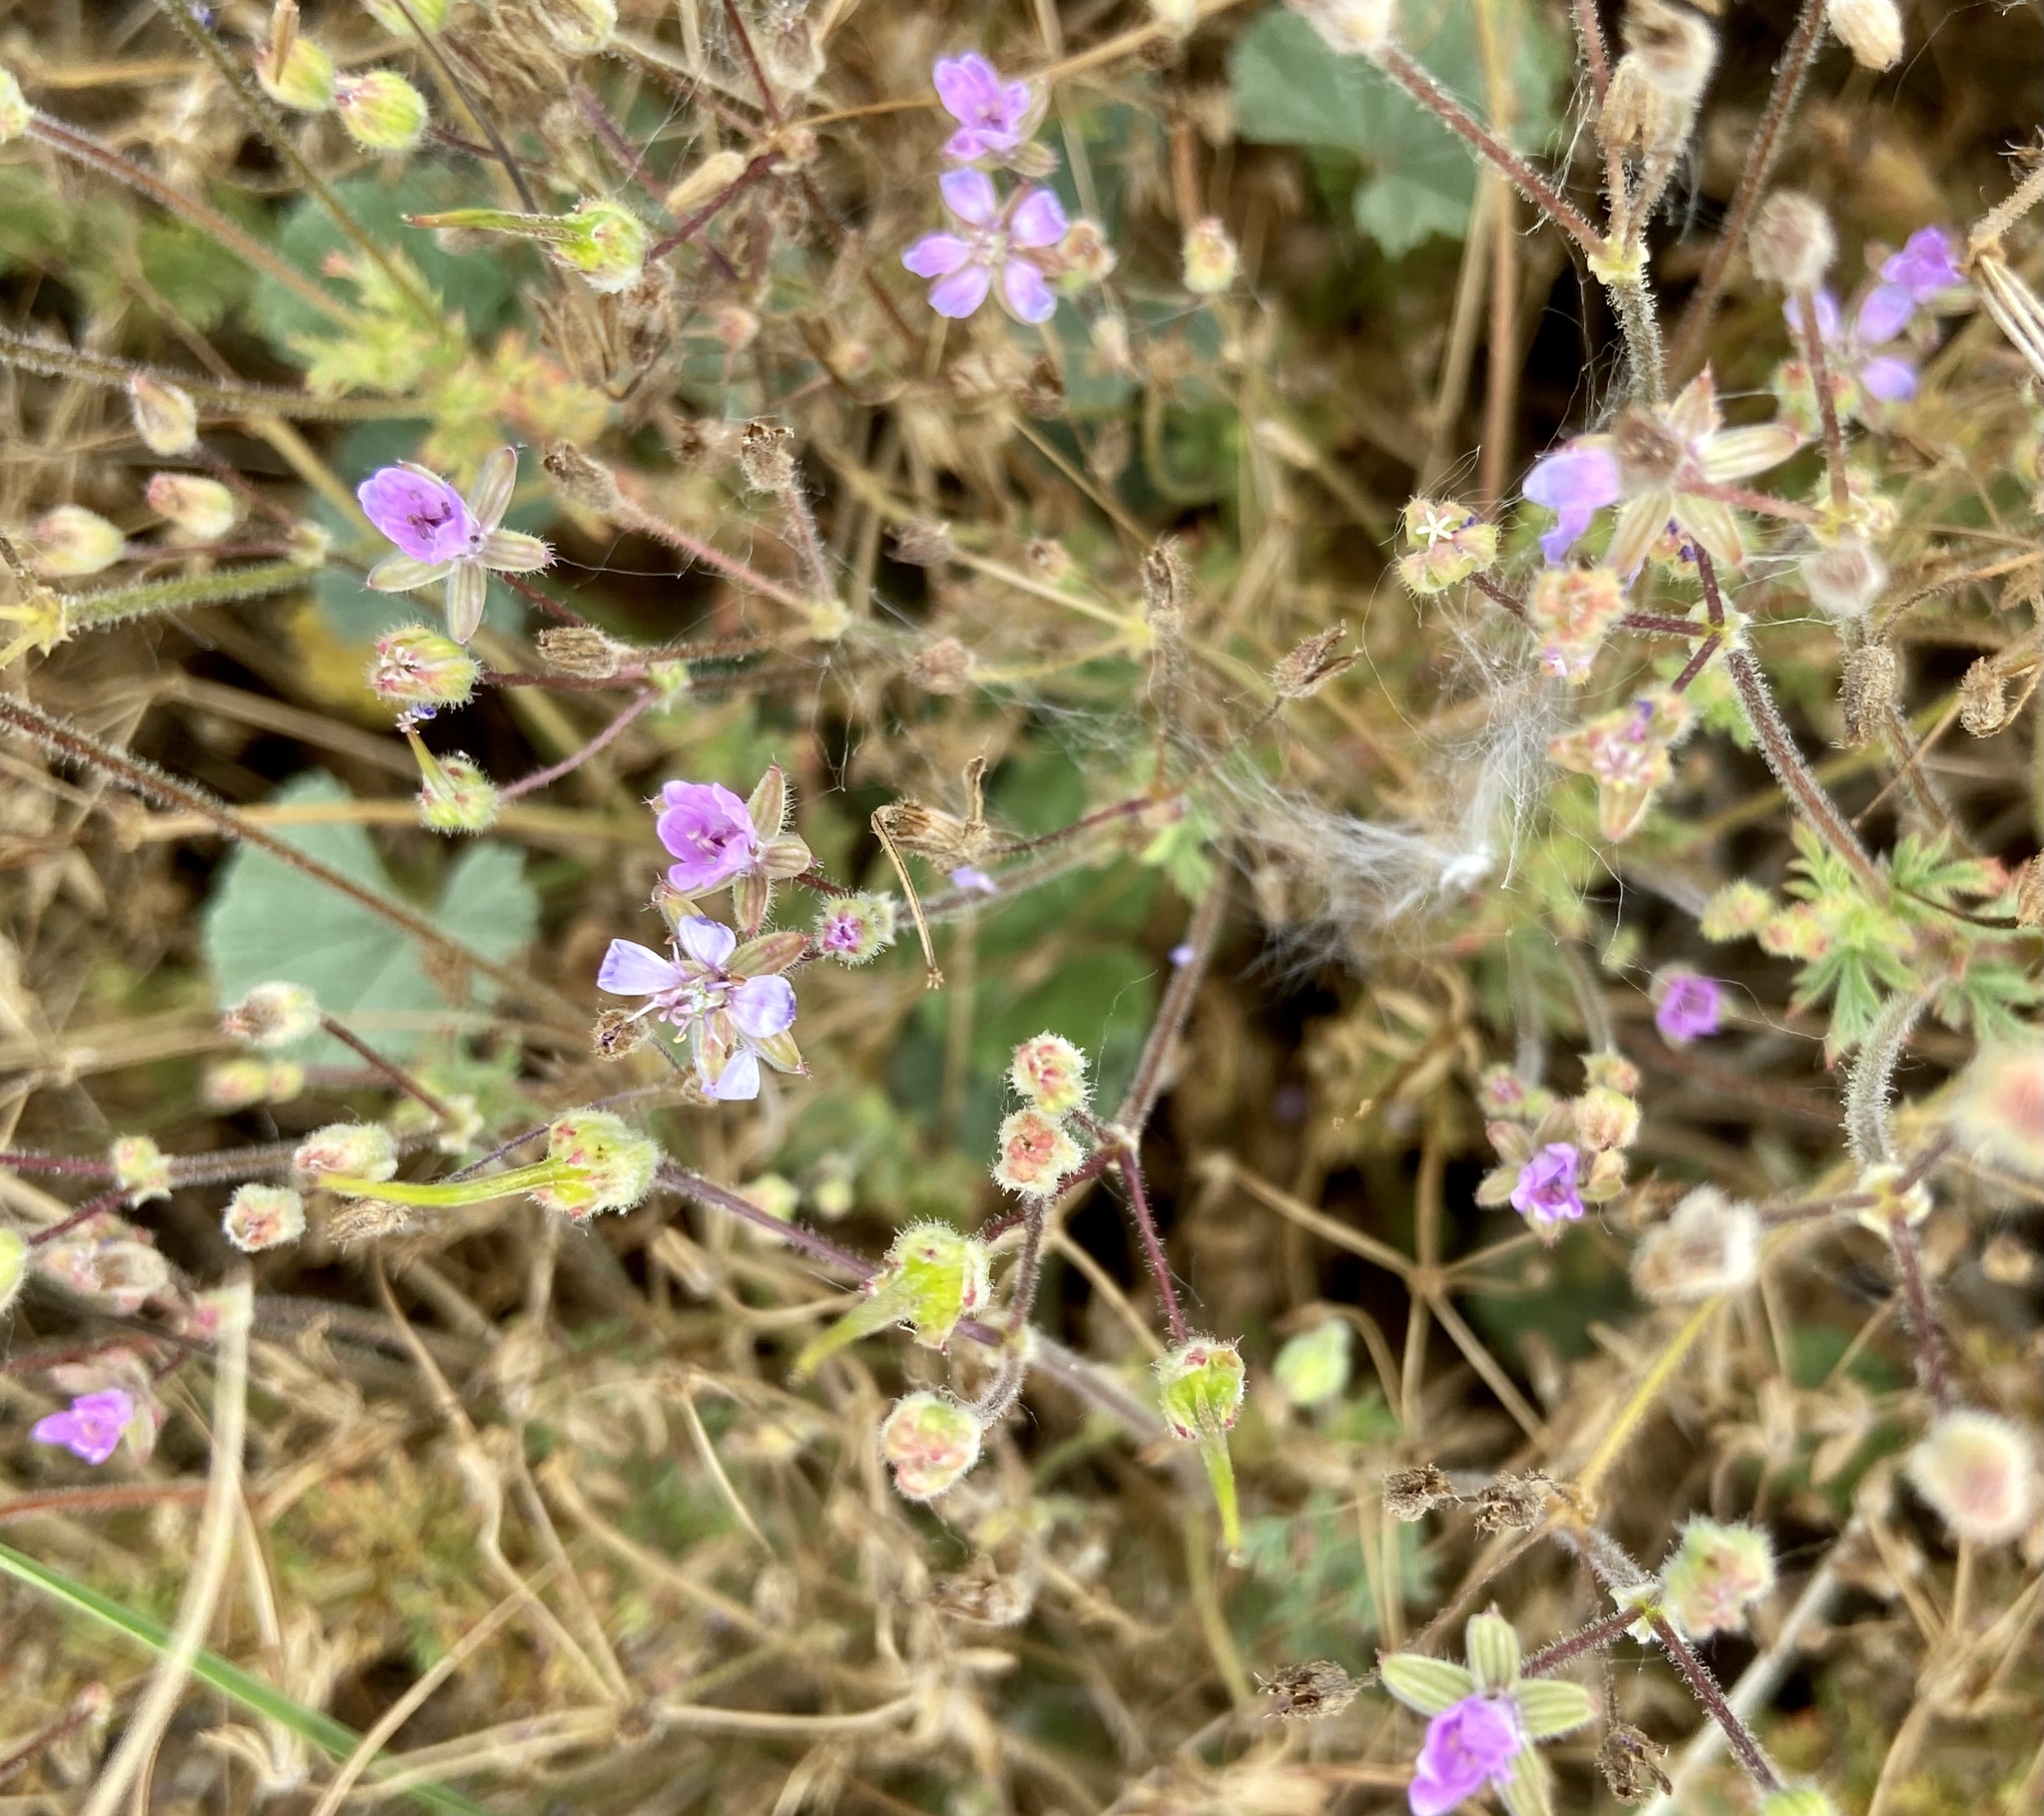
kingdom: Plantae
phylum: Tracheophyta
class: Magnoliopsida
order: Geraniales
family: Geraniaceae
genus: Erodium
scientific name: Erodium cicutarium
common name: Common stork's-bill
